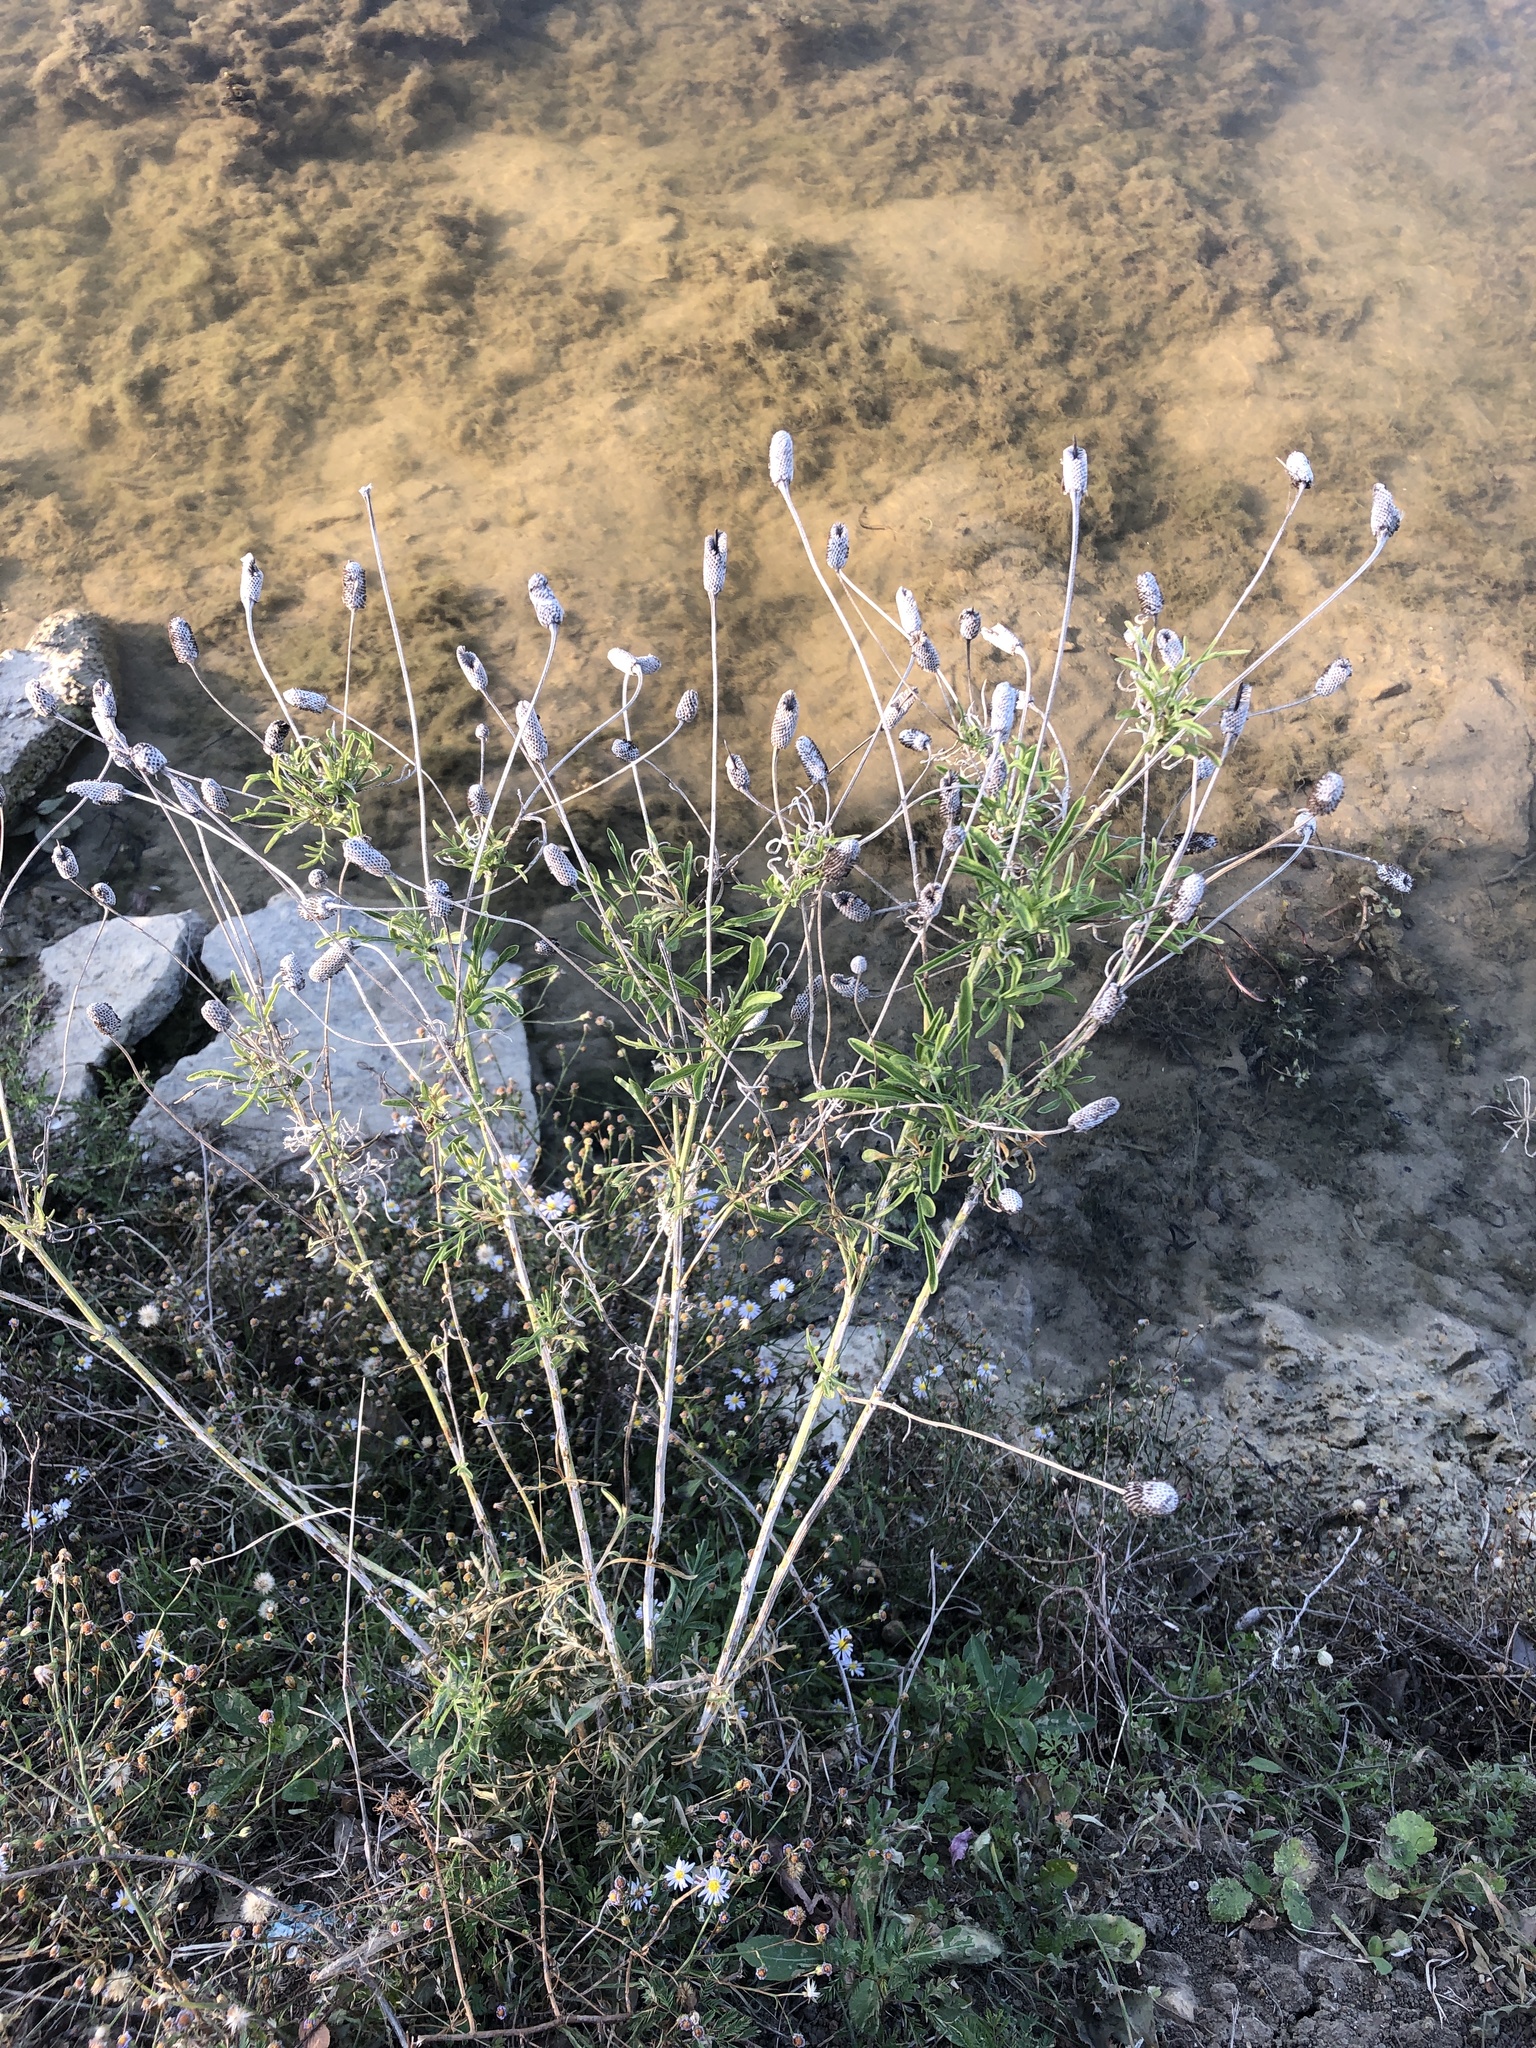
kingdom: Plantae
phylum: Tracheophyta
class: Magnoliopsida
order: Asterales
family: Asteraceae
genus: Ratibida
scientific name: Ratibida columnifera
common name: Prairie coneflower
